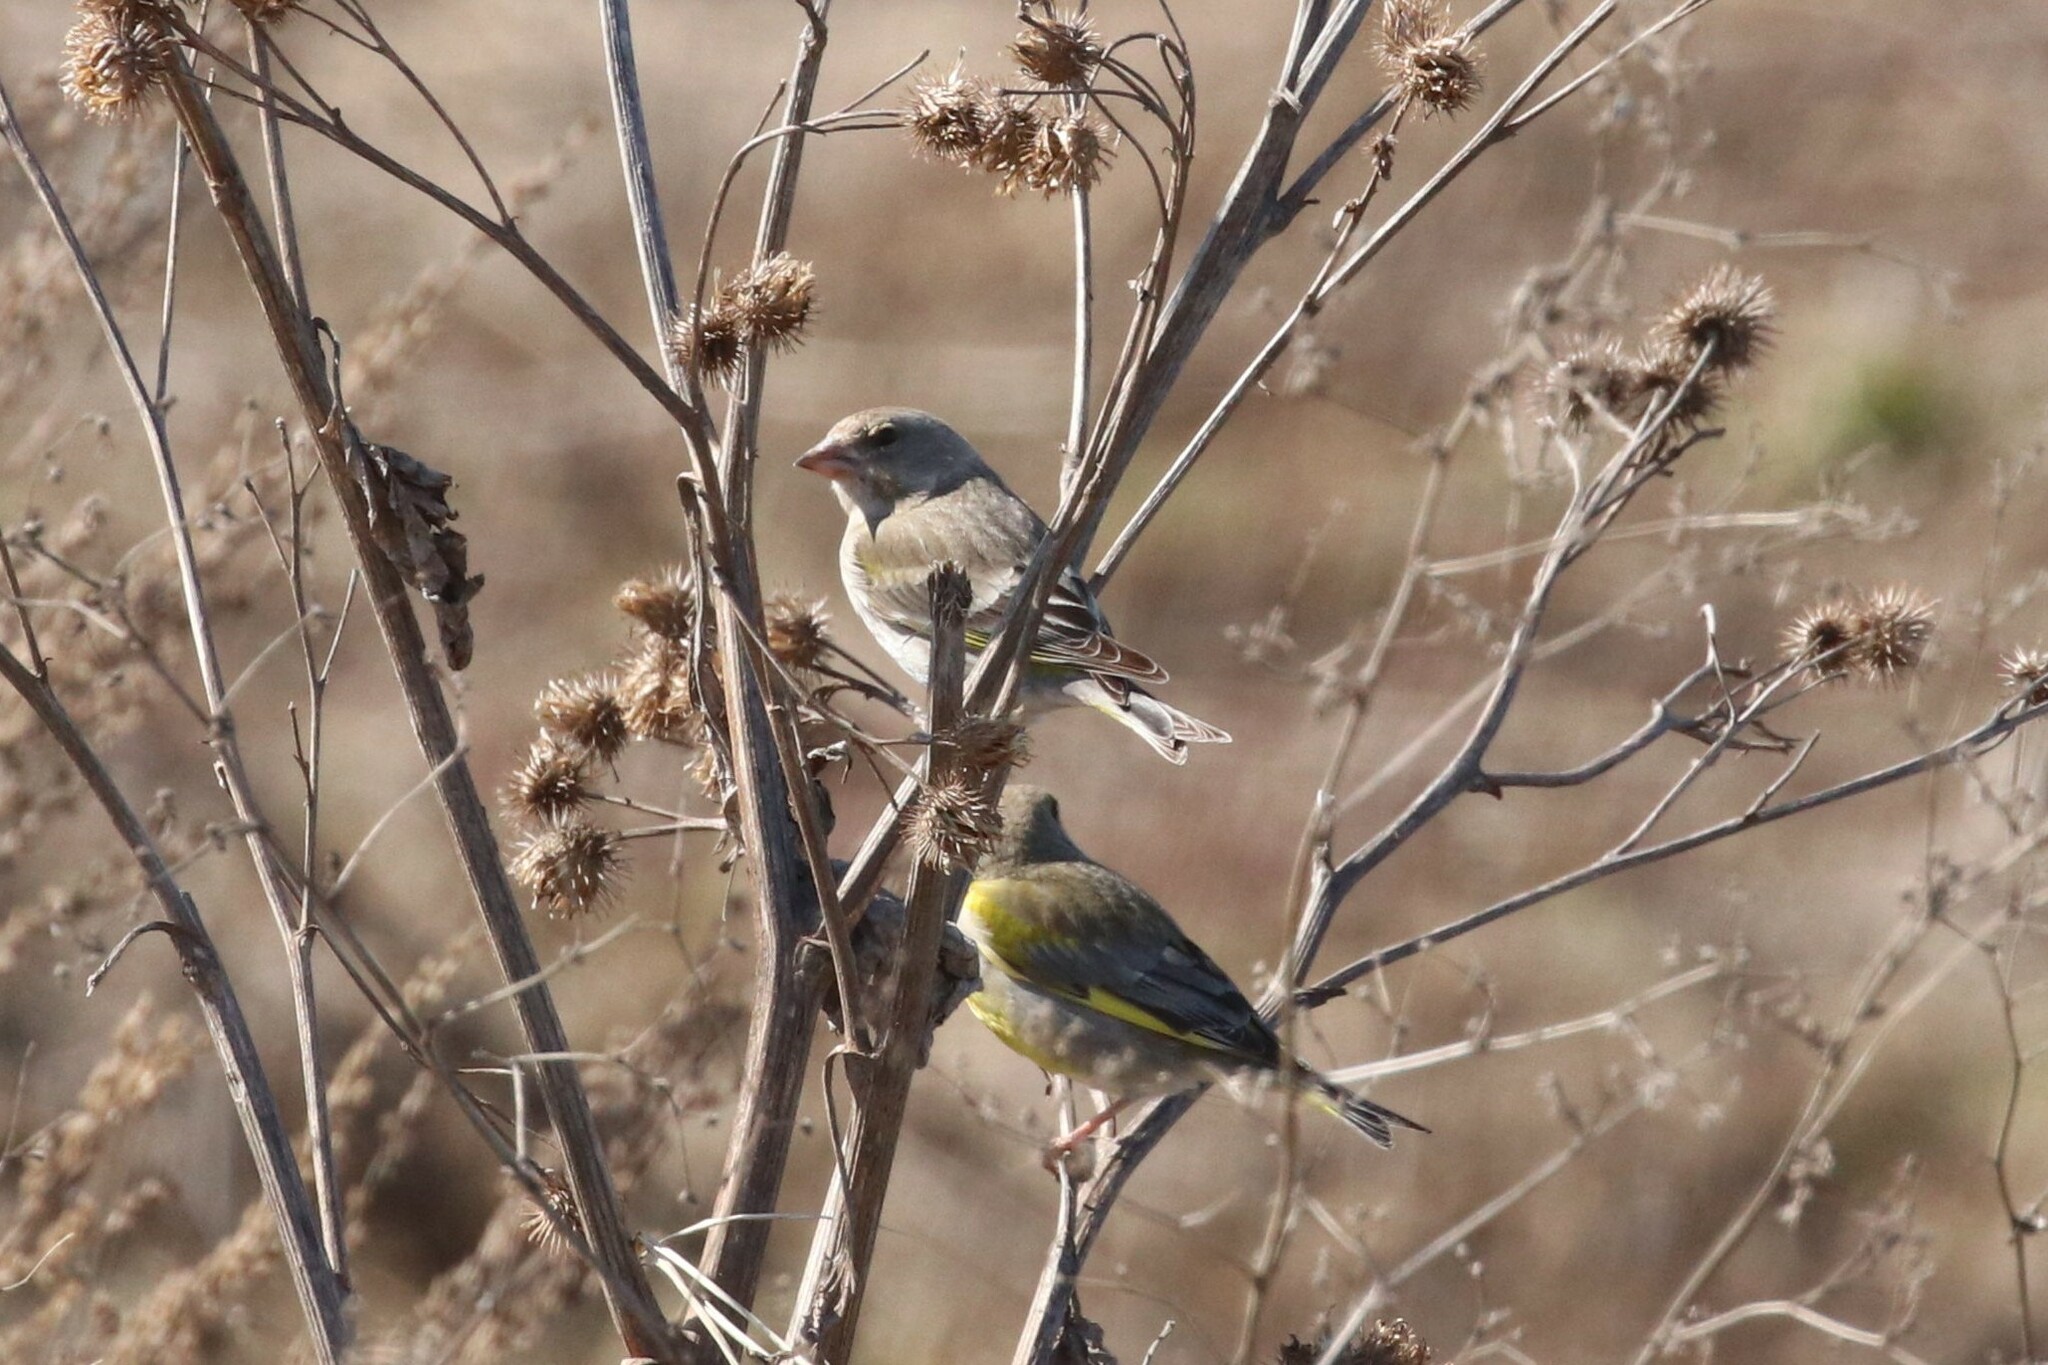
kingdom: Plantae
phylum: Tracheophyta
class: Liliopsida
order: Poales
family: Poaceae
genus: Chloris
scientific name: Chloris chloris
